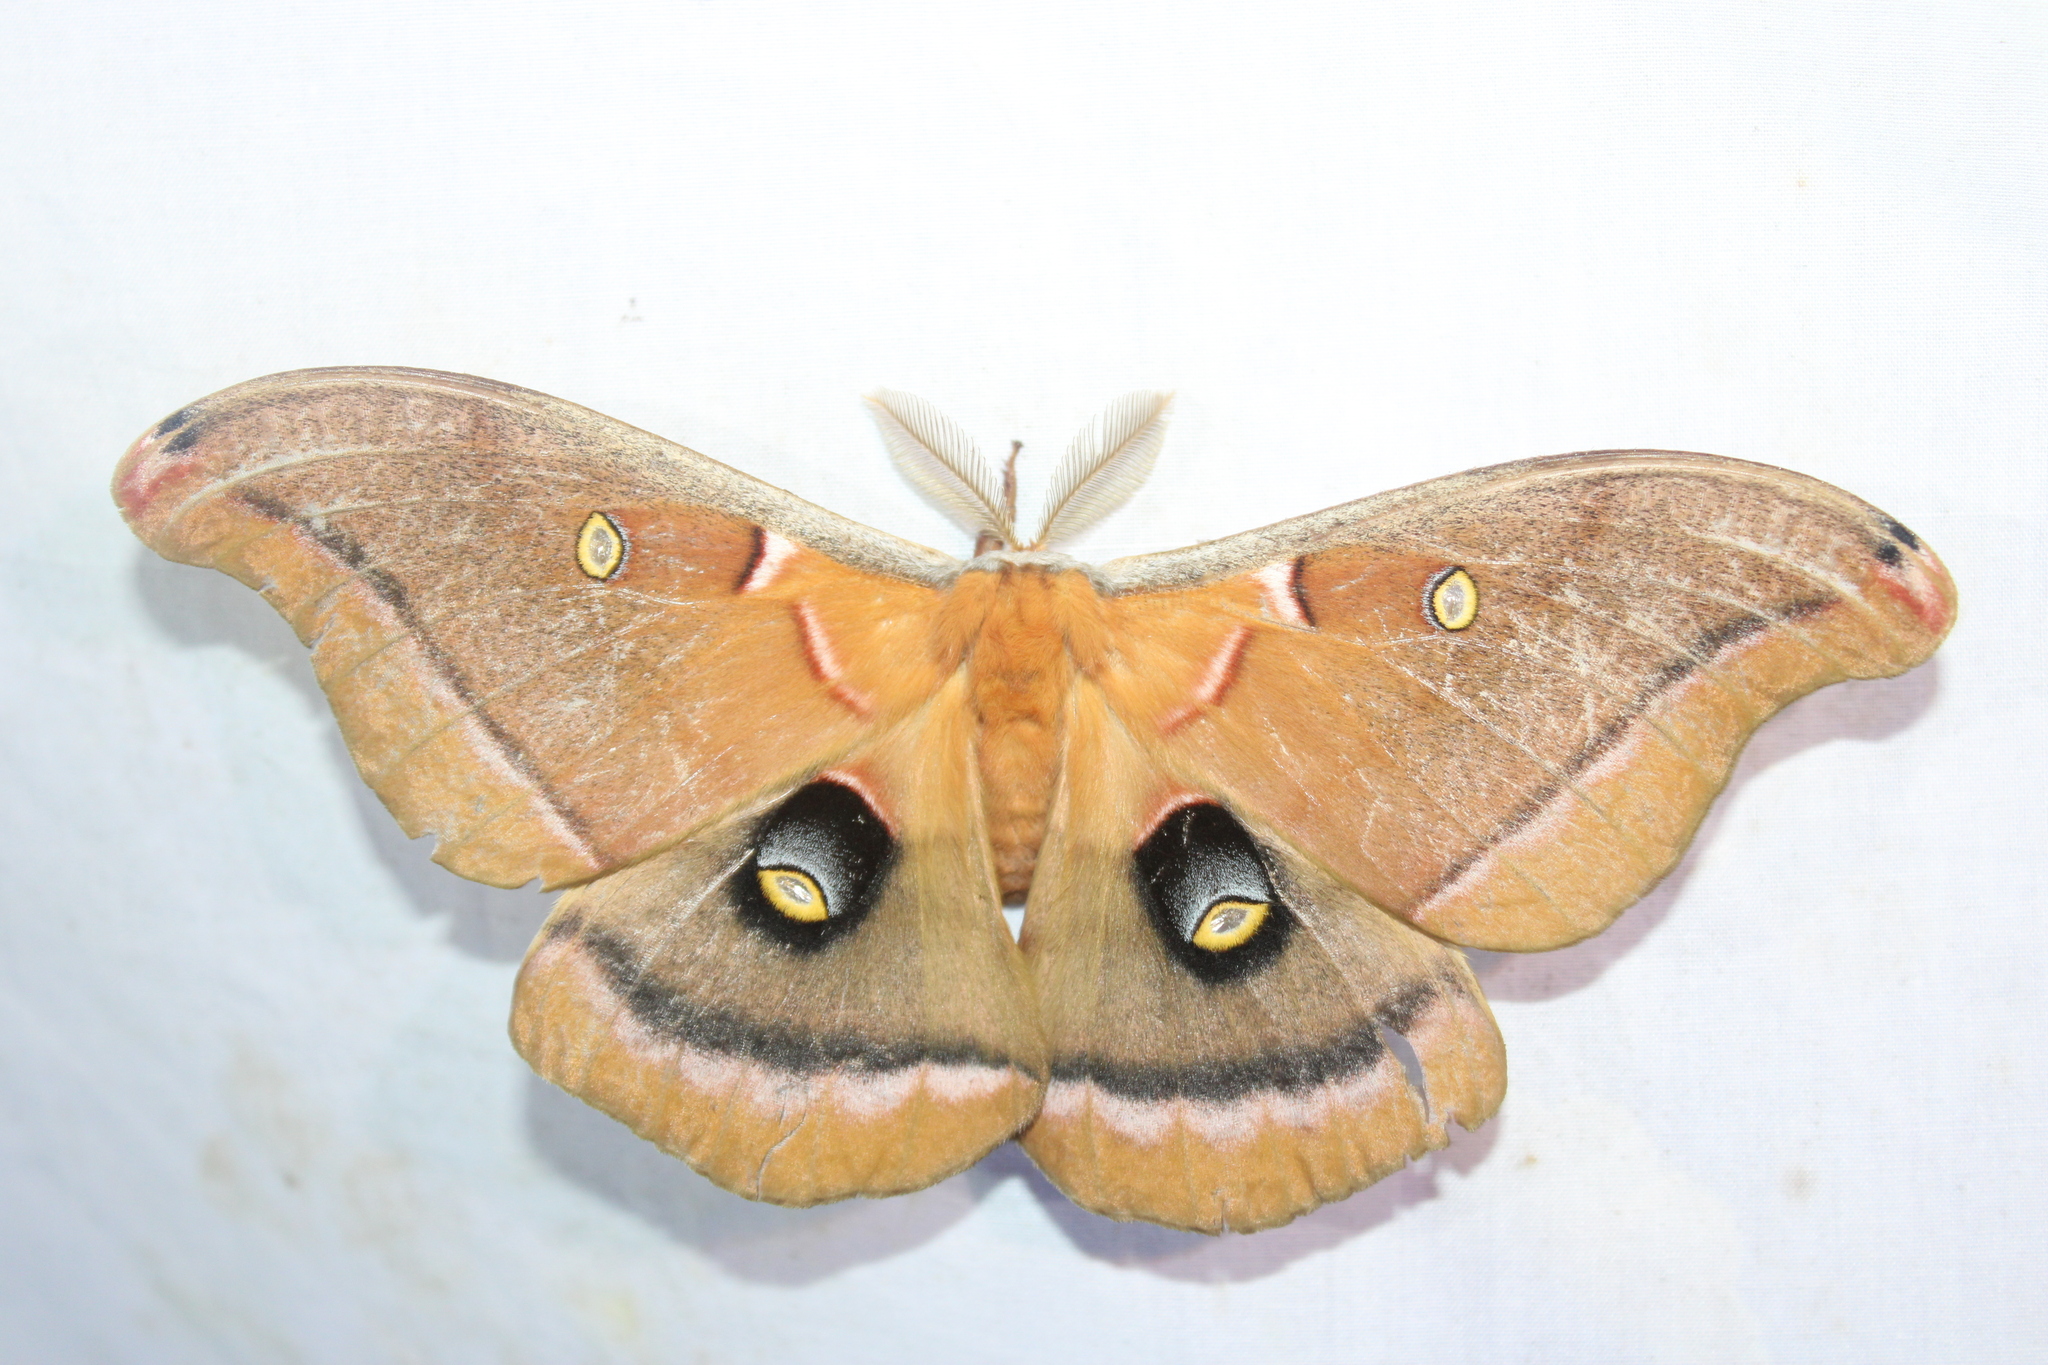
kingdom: Animalia
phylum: Arthropoda
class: Insecta
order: Lepidoptera
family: Saturniidae
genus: Antheraea
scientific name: Antheraea polyphemus
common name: Polyphemus moth
